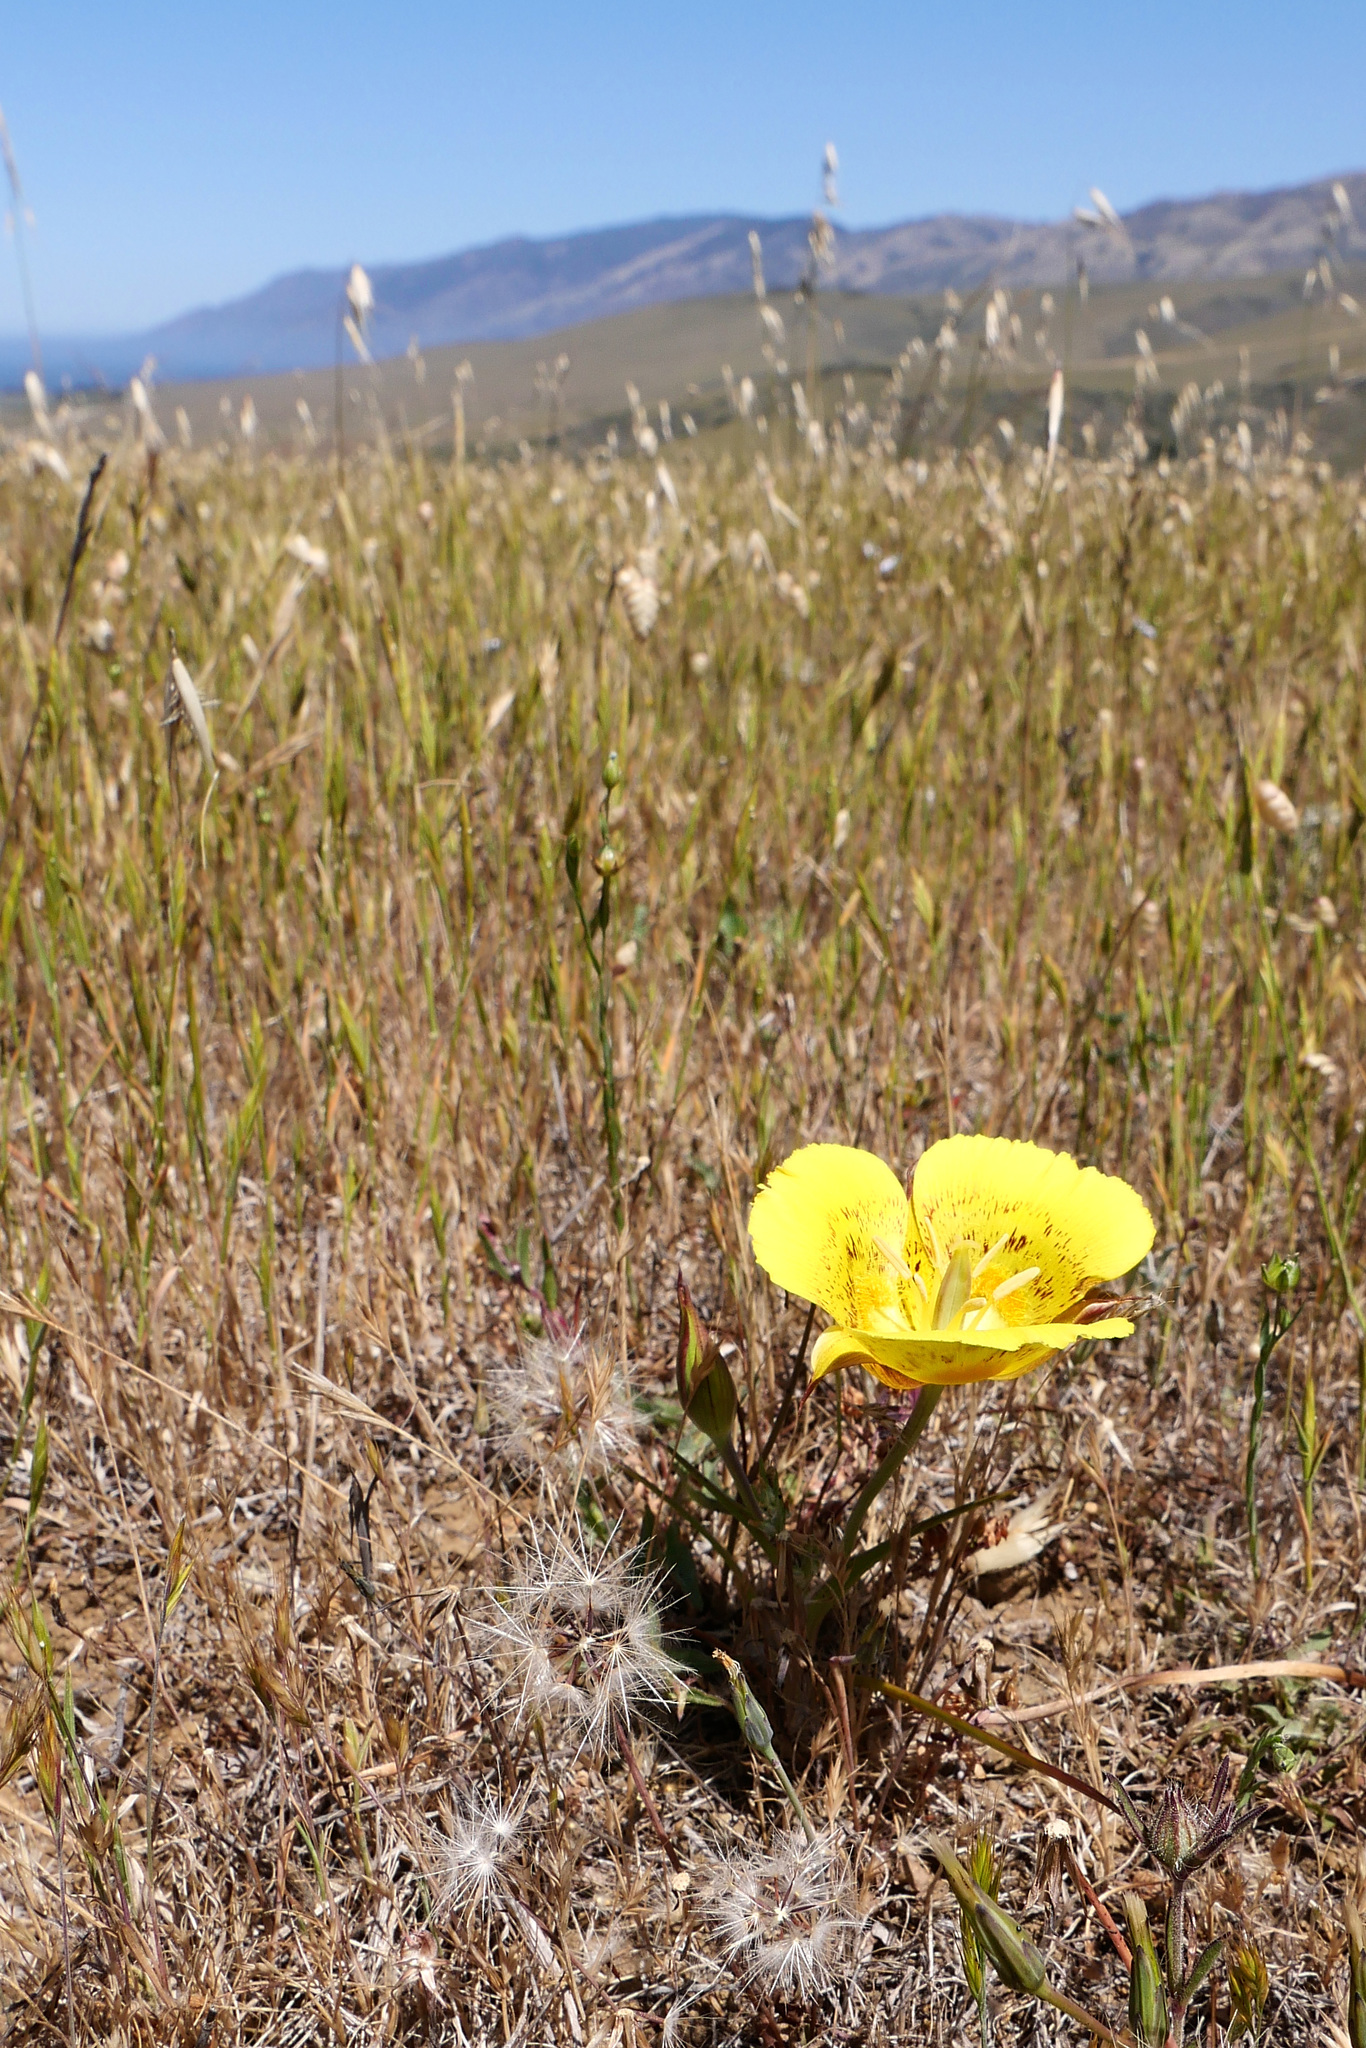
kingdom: Plantae
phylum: Tracheophyta
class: Liliopsida
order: Liliales
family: Liliaceae
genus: Calochortus
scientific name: Calochortus luteus
